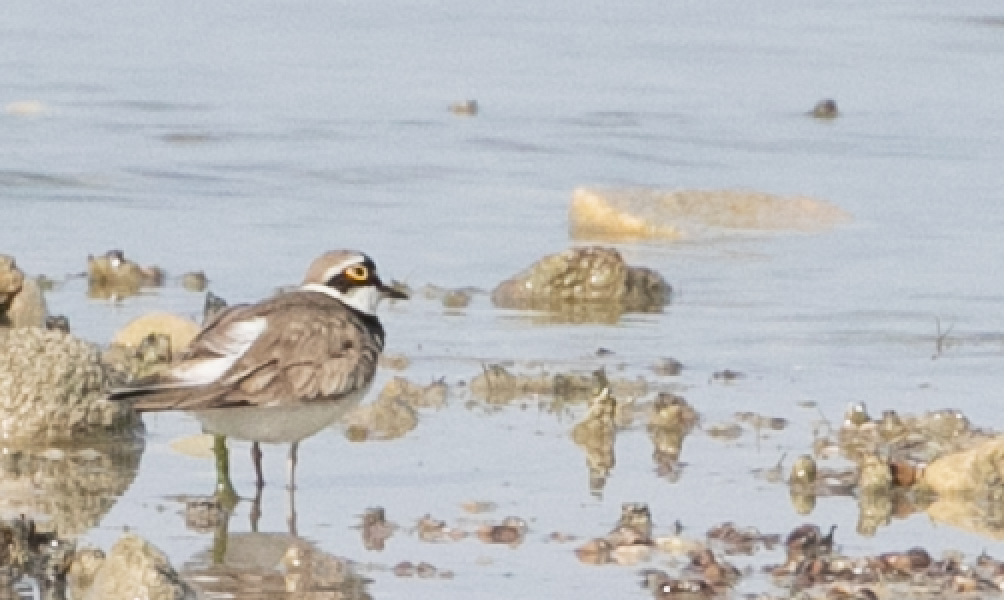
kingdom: Animalia
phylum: Chordata
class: Aves
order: Charadriiformes
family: Charadriidae
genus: Charadrius
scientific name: Charadrius dubius
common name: Little ringed plover
